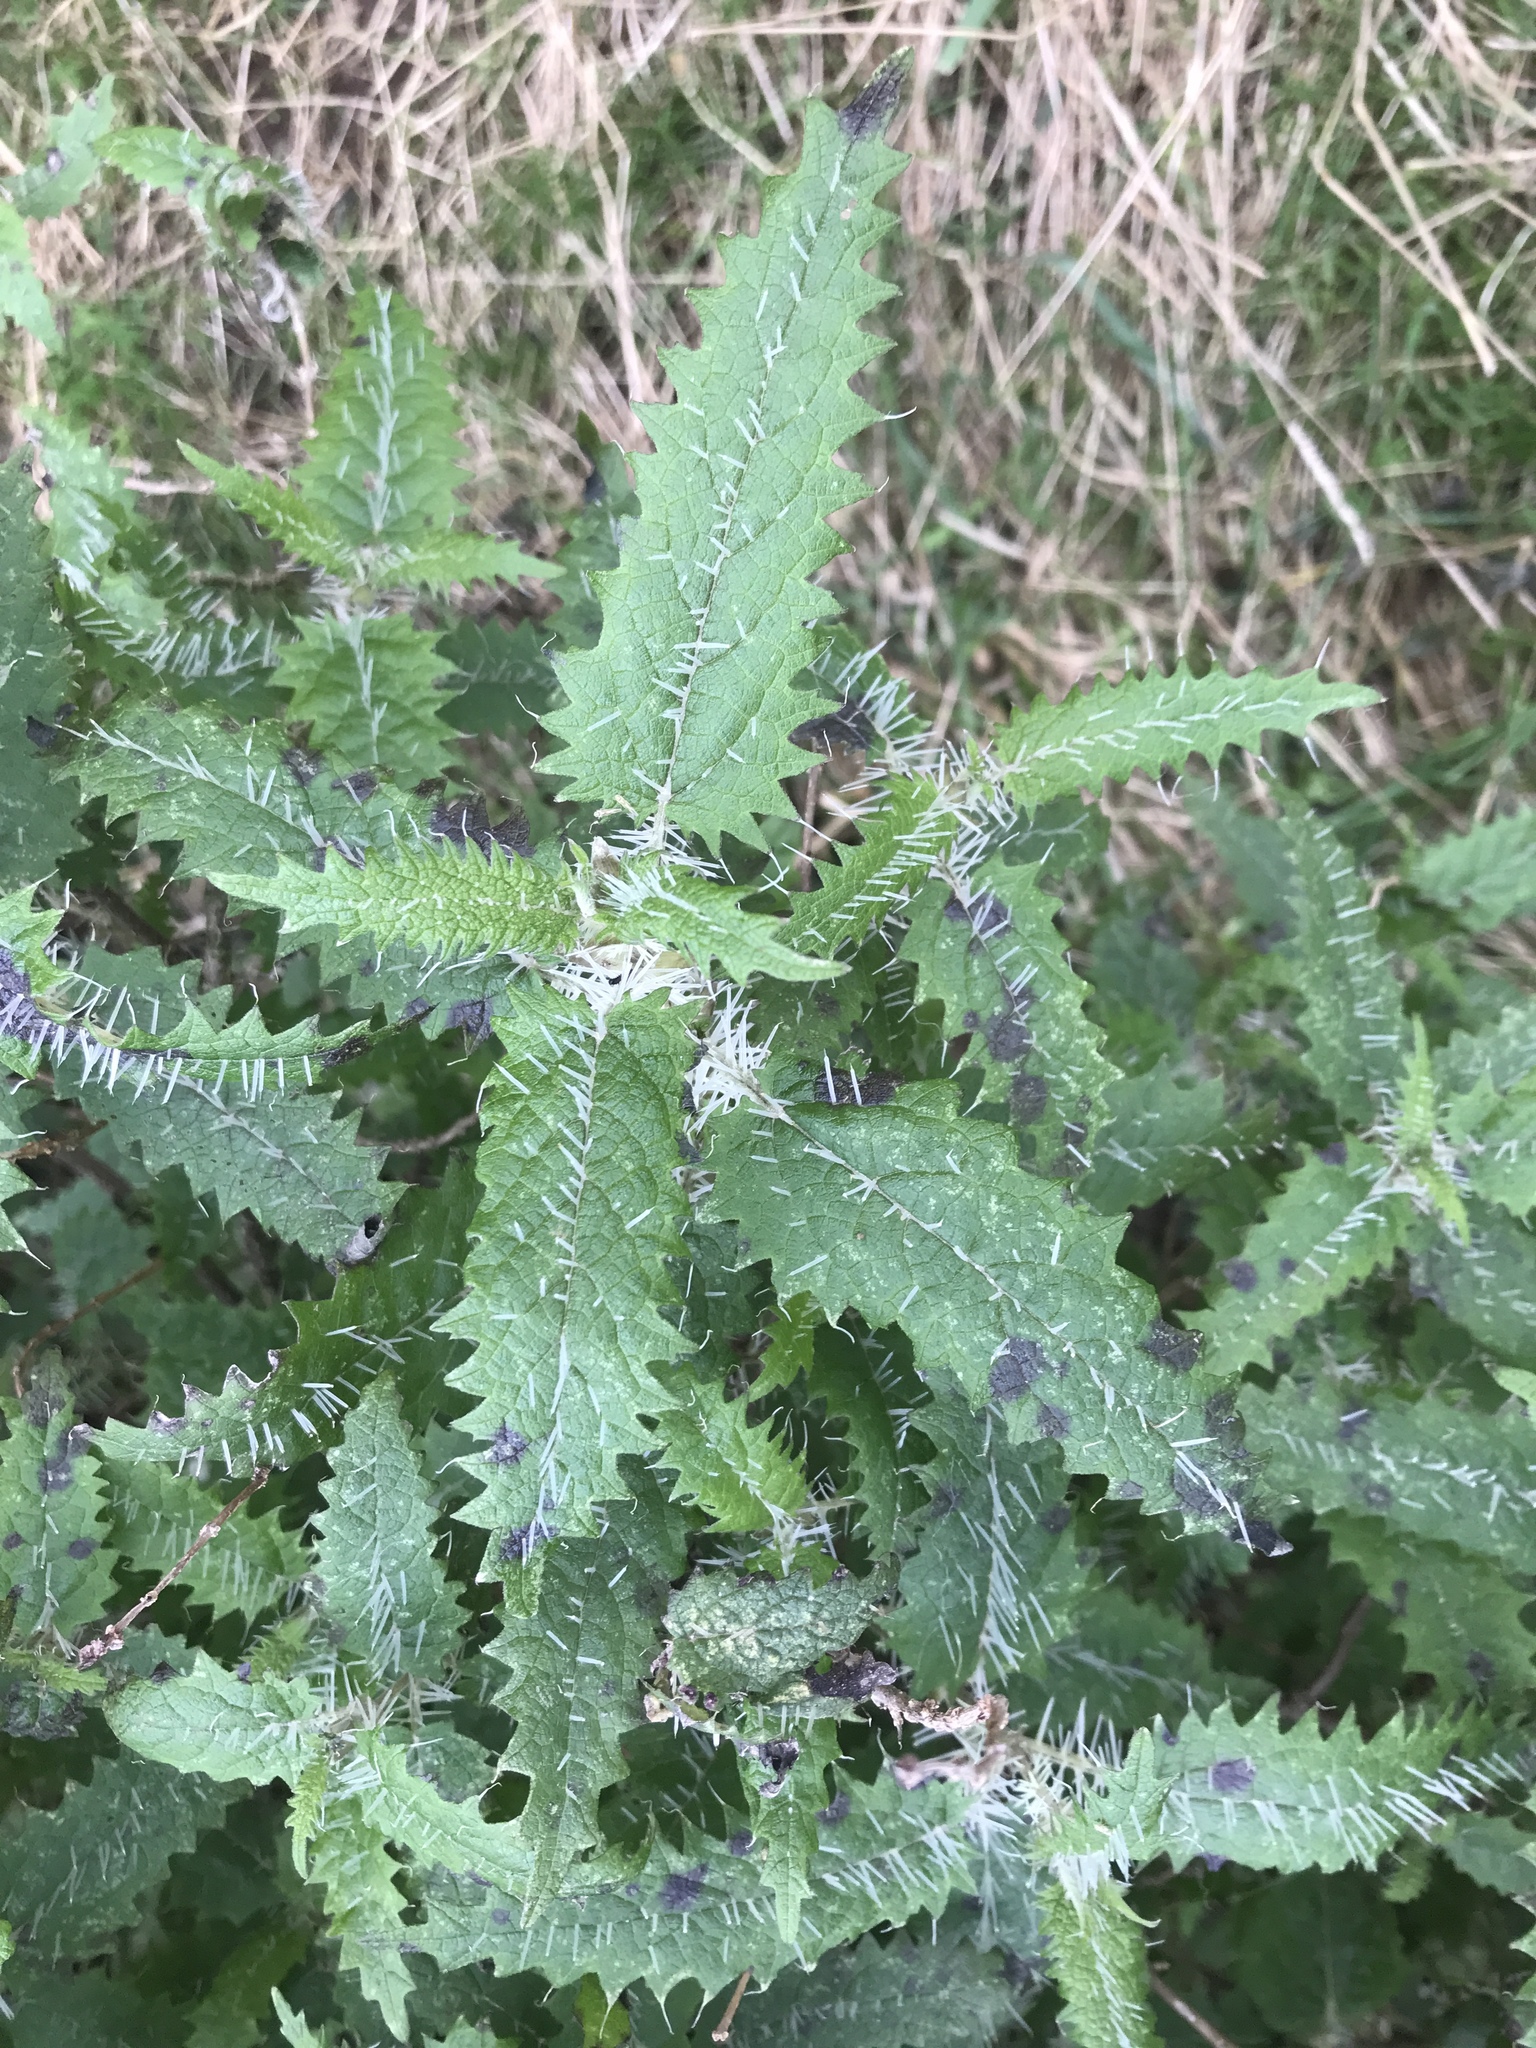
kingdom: Plantae
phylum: Tracheophyta
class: Magnoliopsida
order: Rosales
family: Urticaceae
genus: Urtica
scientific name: Urtica ferox
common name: Tree nettle
